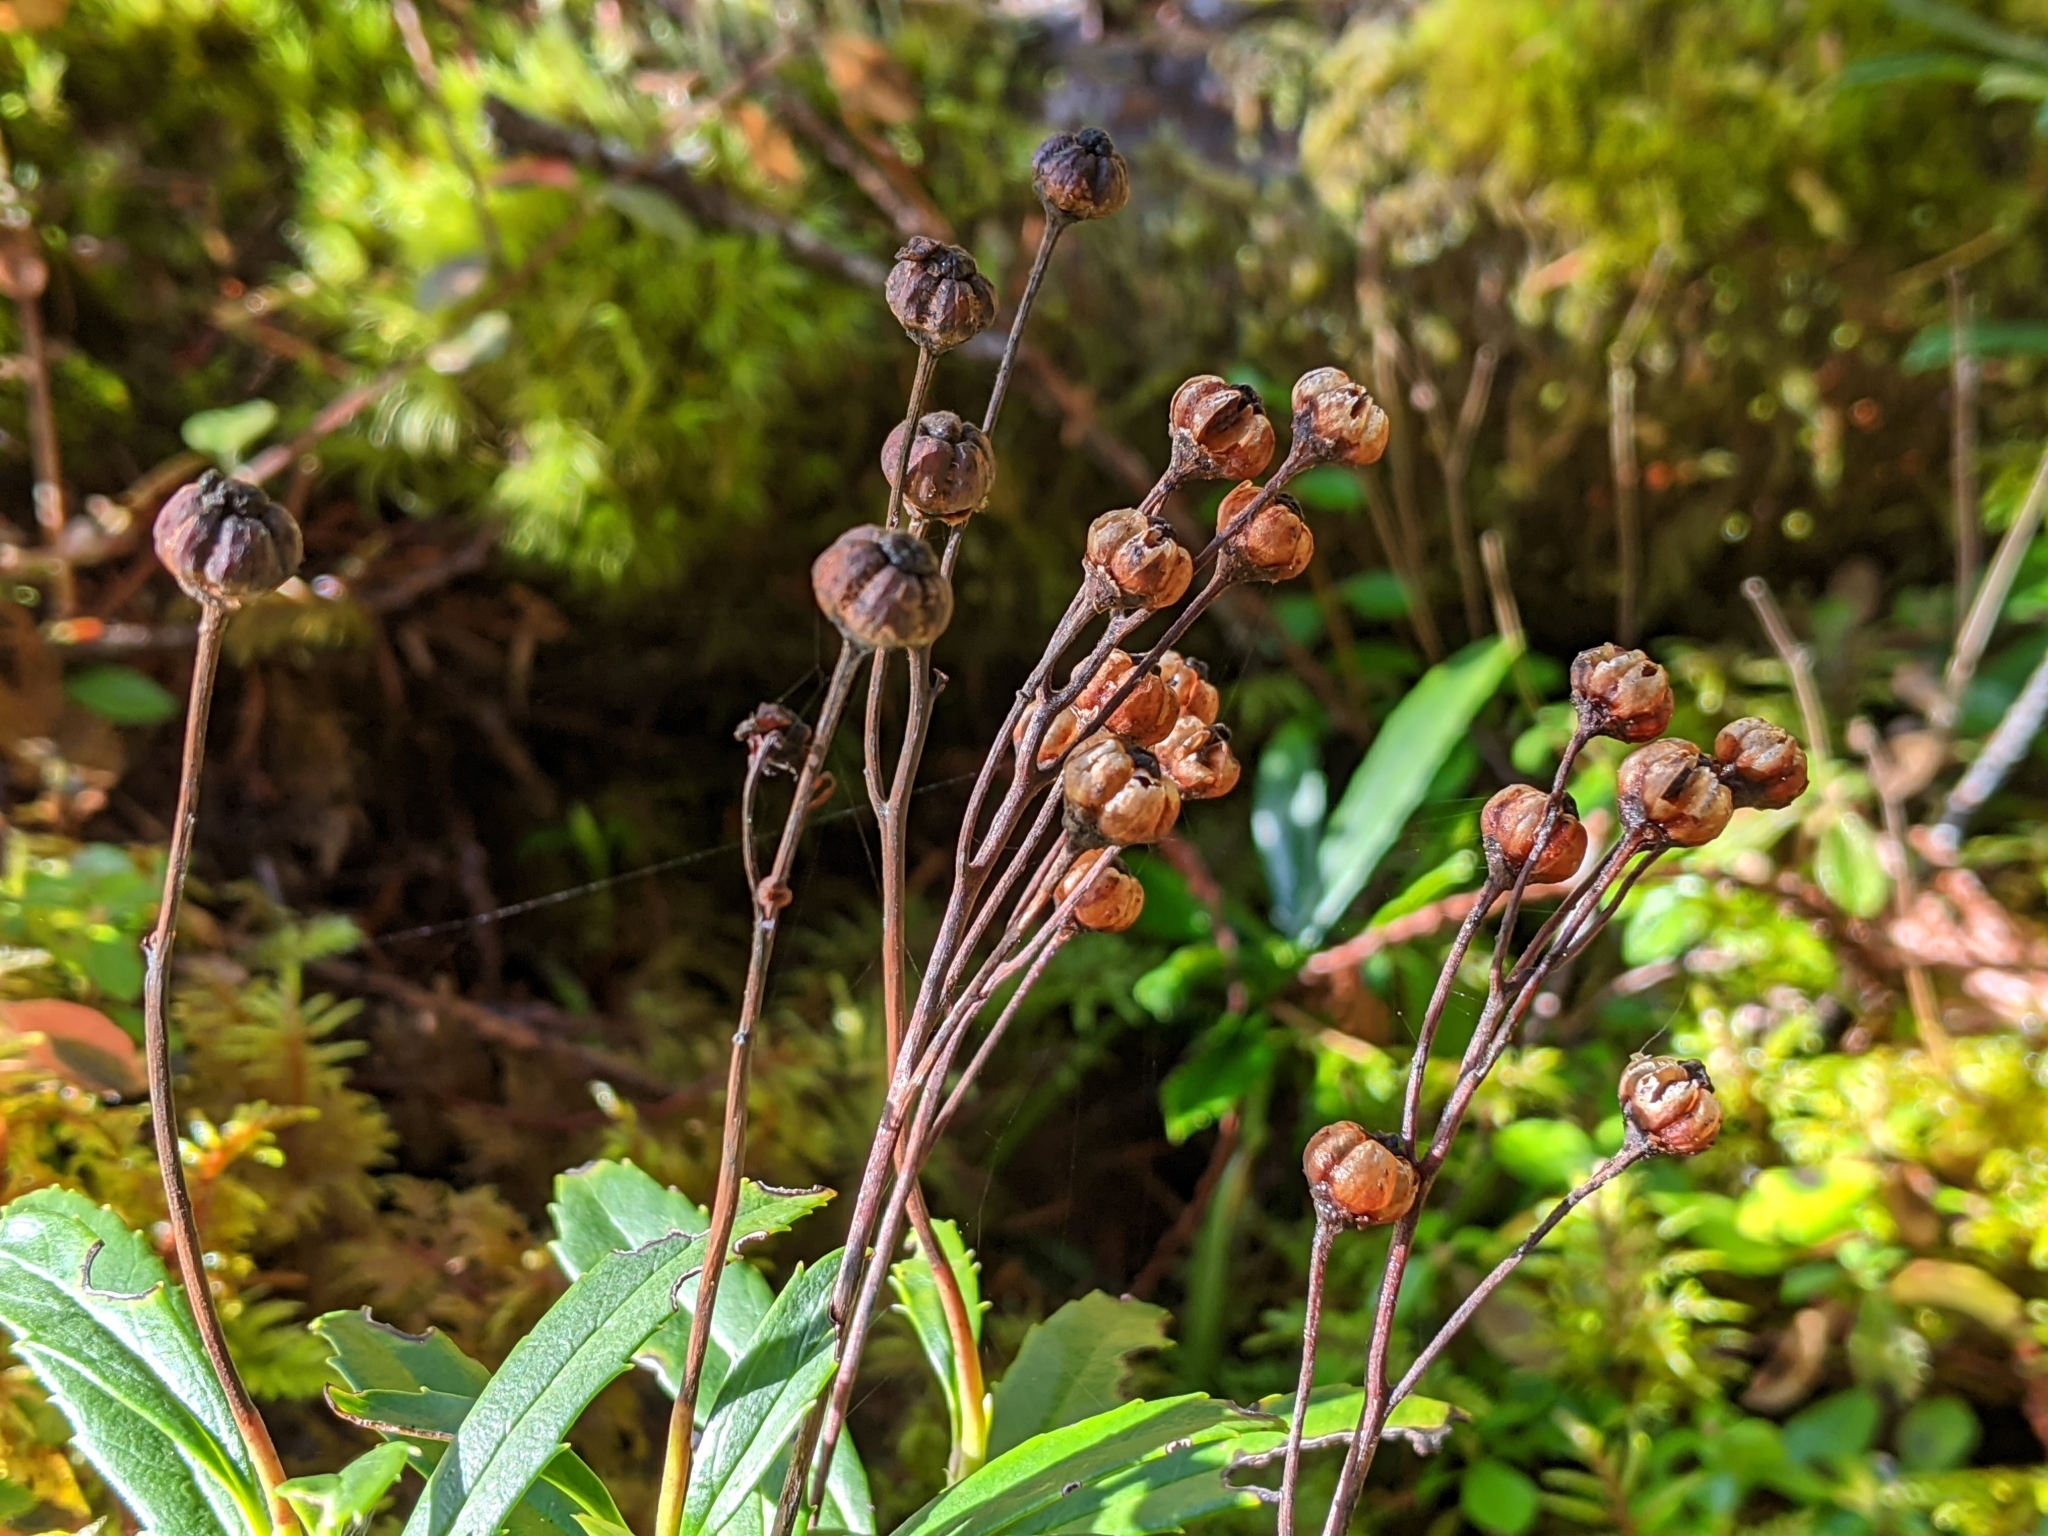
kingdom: Plantae
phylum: Tracheophyta
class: Magnoliopsida
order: Ericales
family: Ericaceae
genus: Chimaphila
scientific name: Chimaphila umbellata
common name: Pipsissewa
